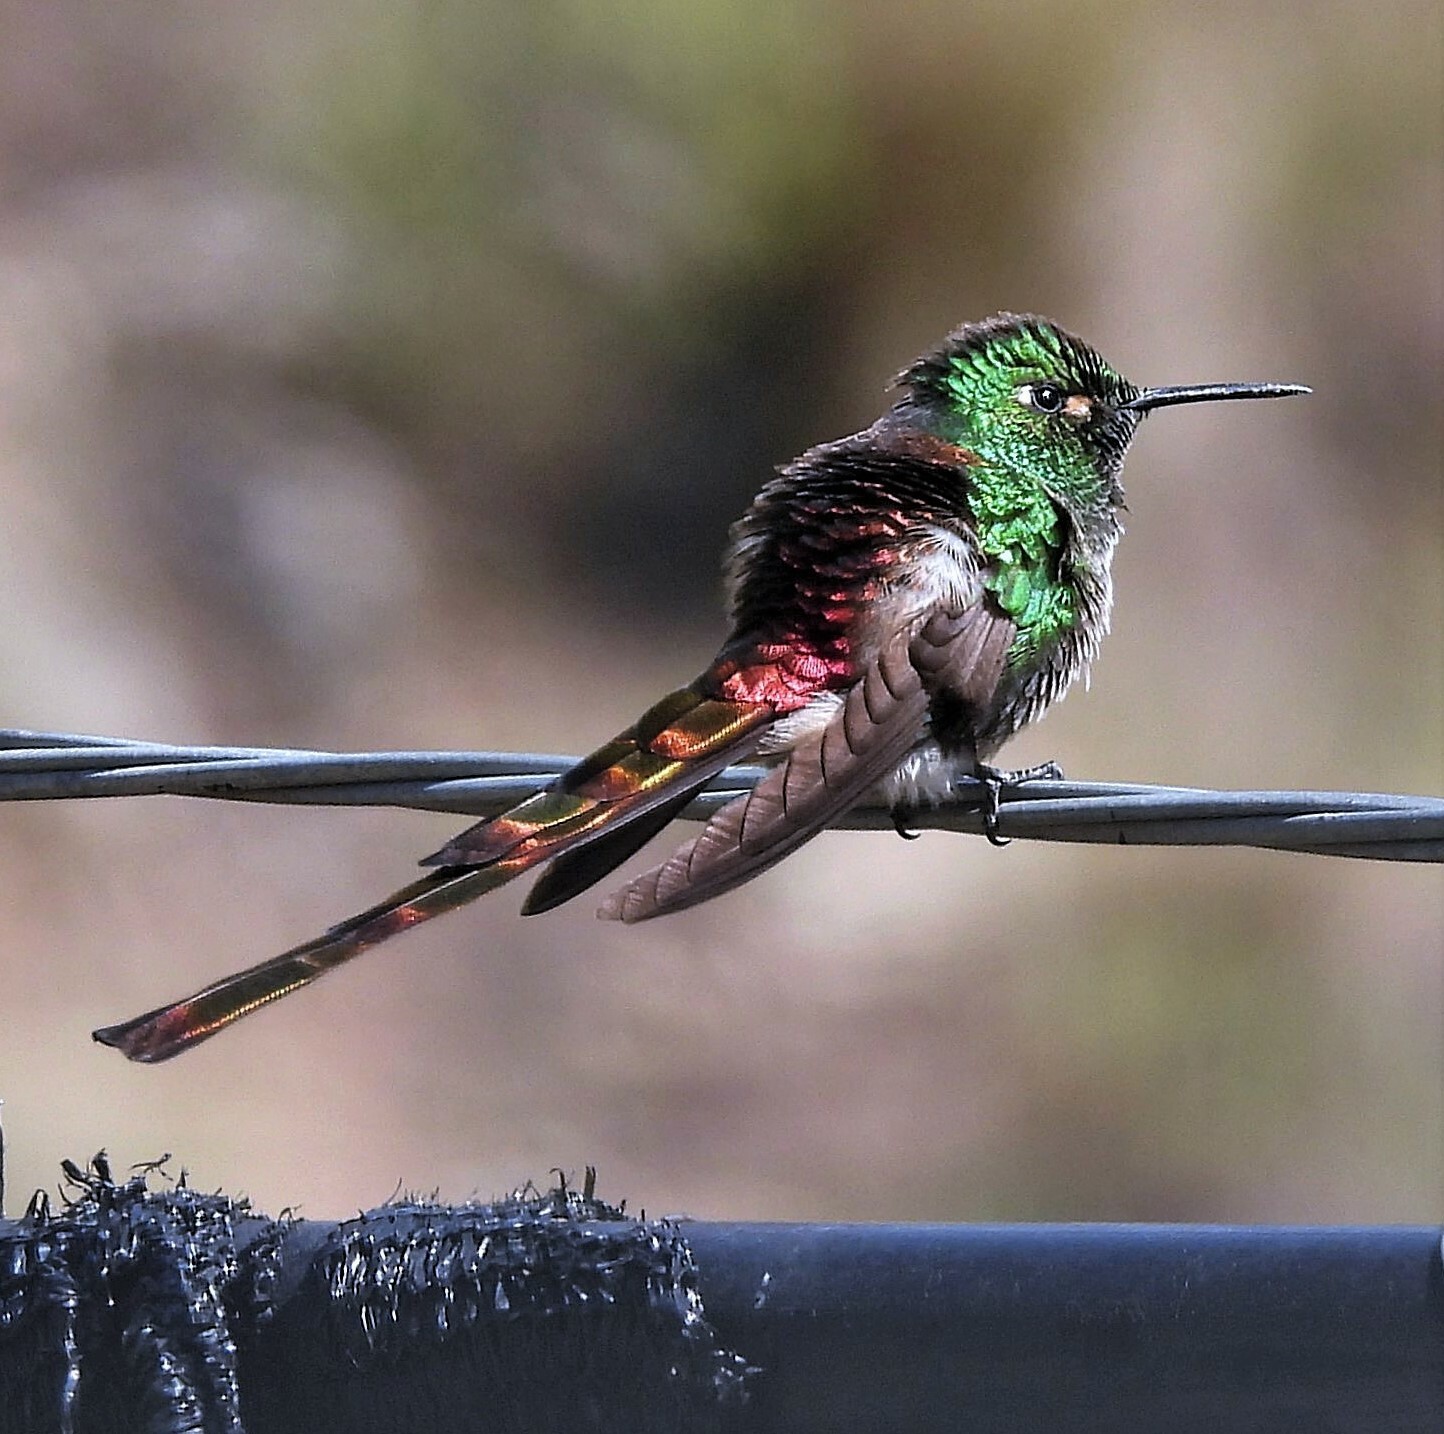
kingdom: Animalia
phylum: Chordata
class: Aves
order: Apodiformes
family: Trochilidae
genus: Sappho
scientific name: Sappho sparganurus
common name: Red-tailed comet
